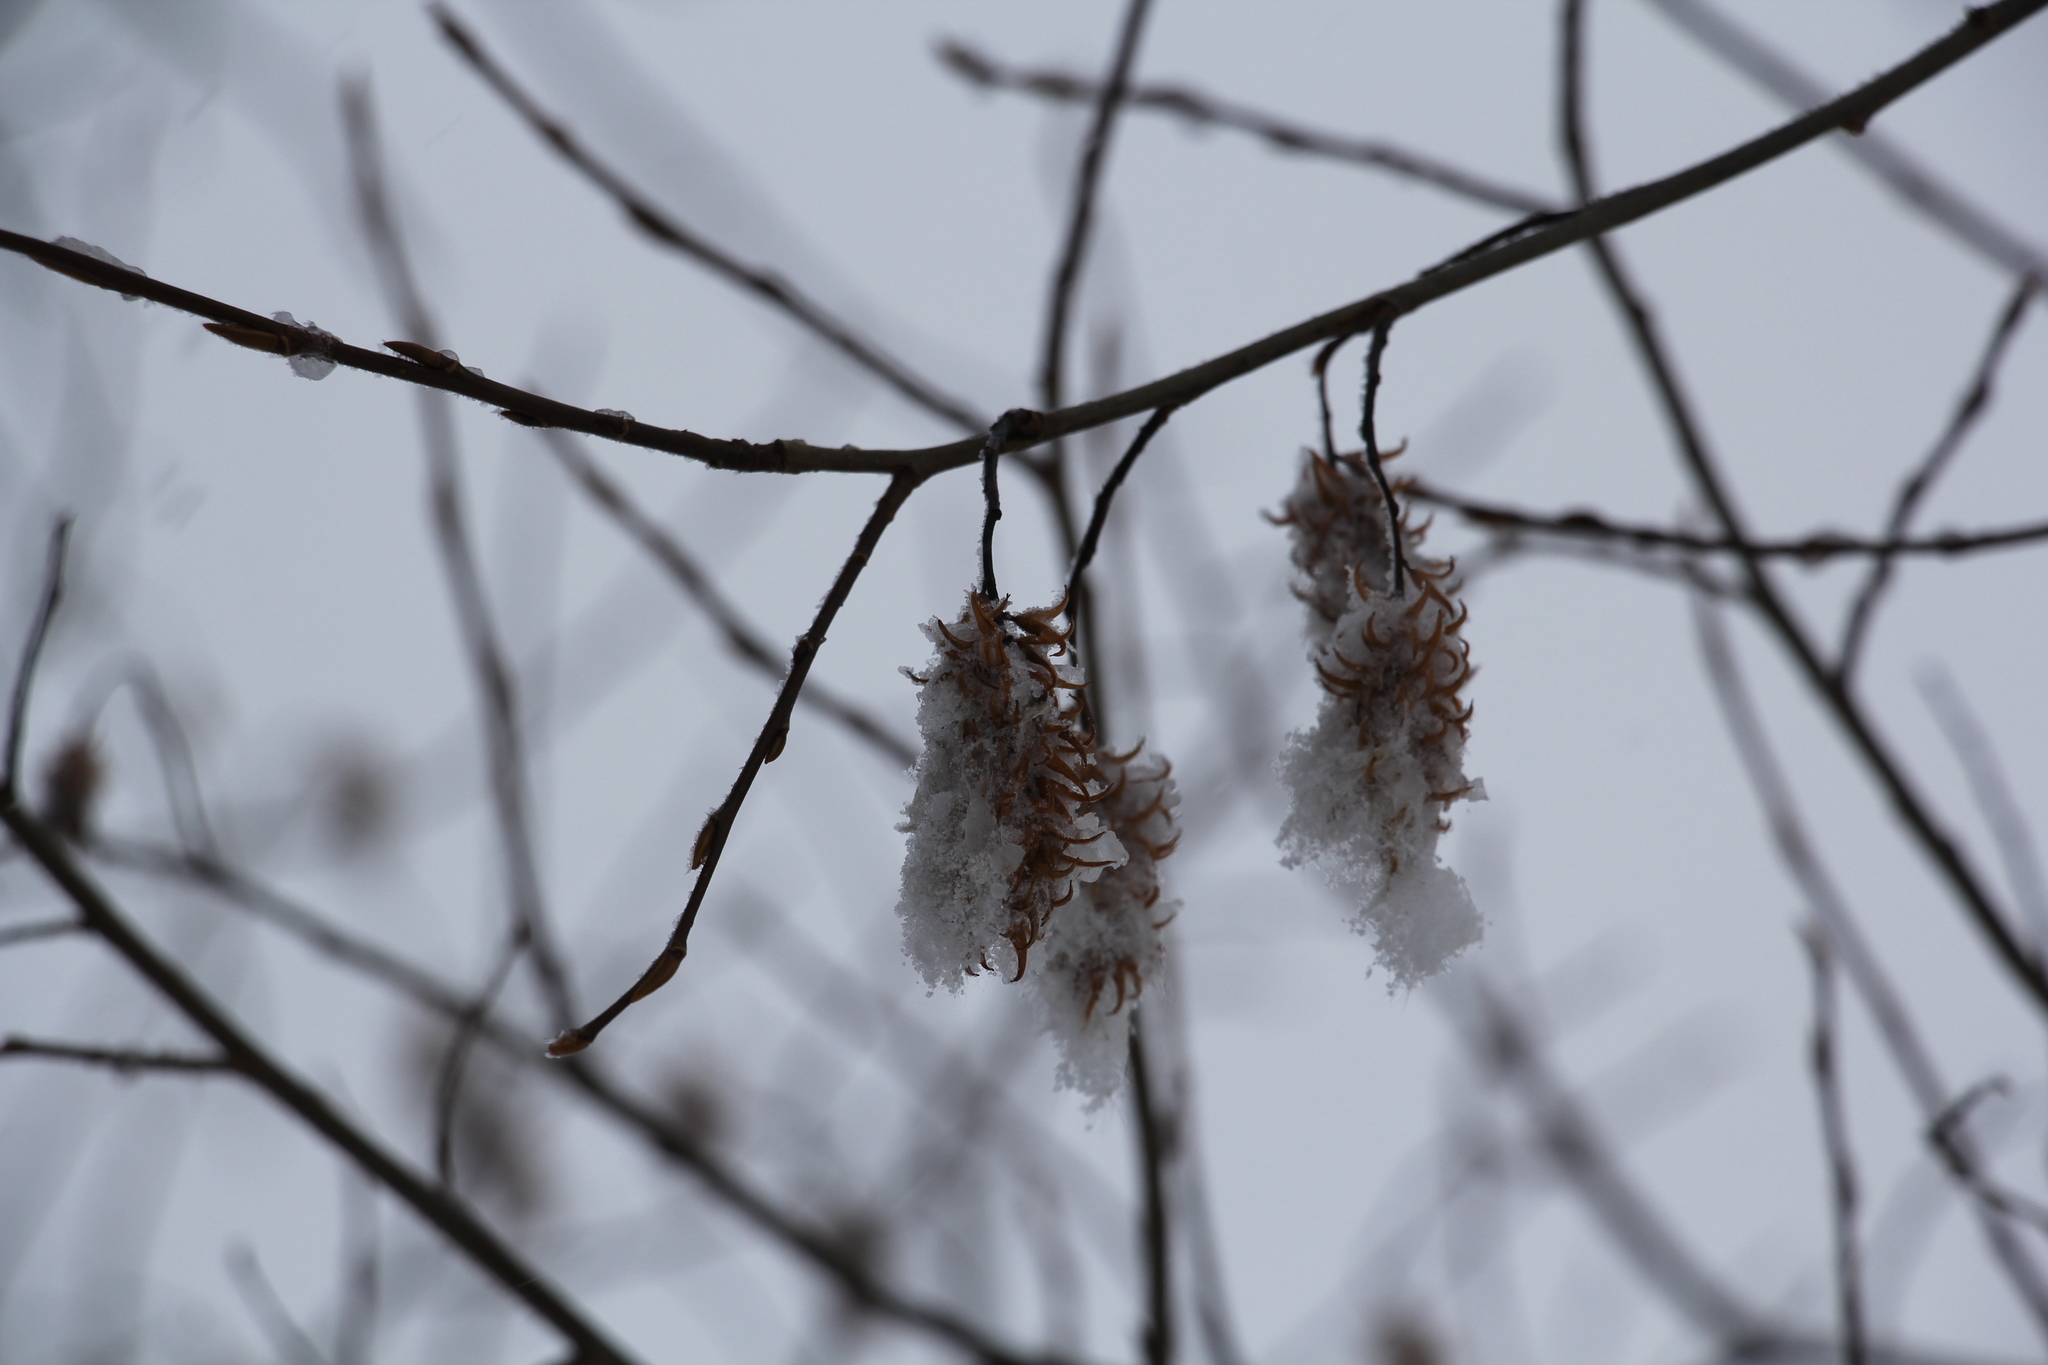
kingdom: Plantae
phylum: Tracheophyta
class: Magnoliopsida
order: Malpighiales
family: Salicaceae
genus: Salix
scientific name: Salix pentandra
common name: Bay willow
